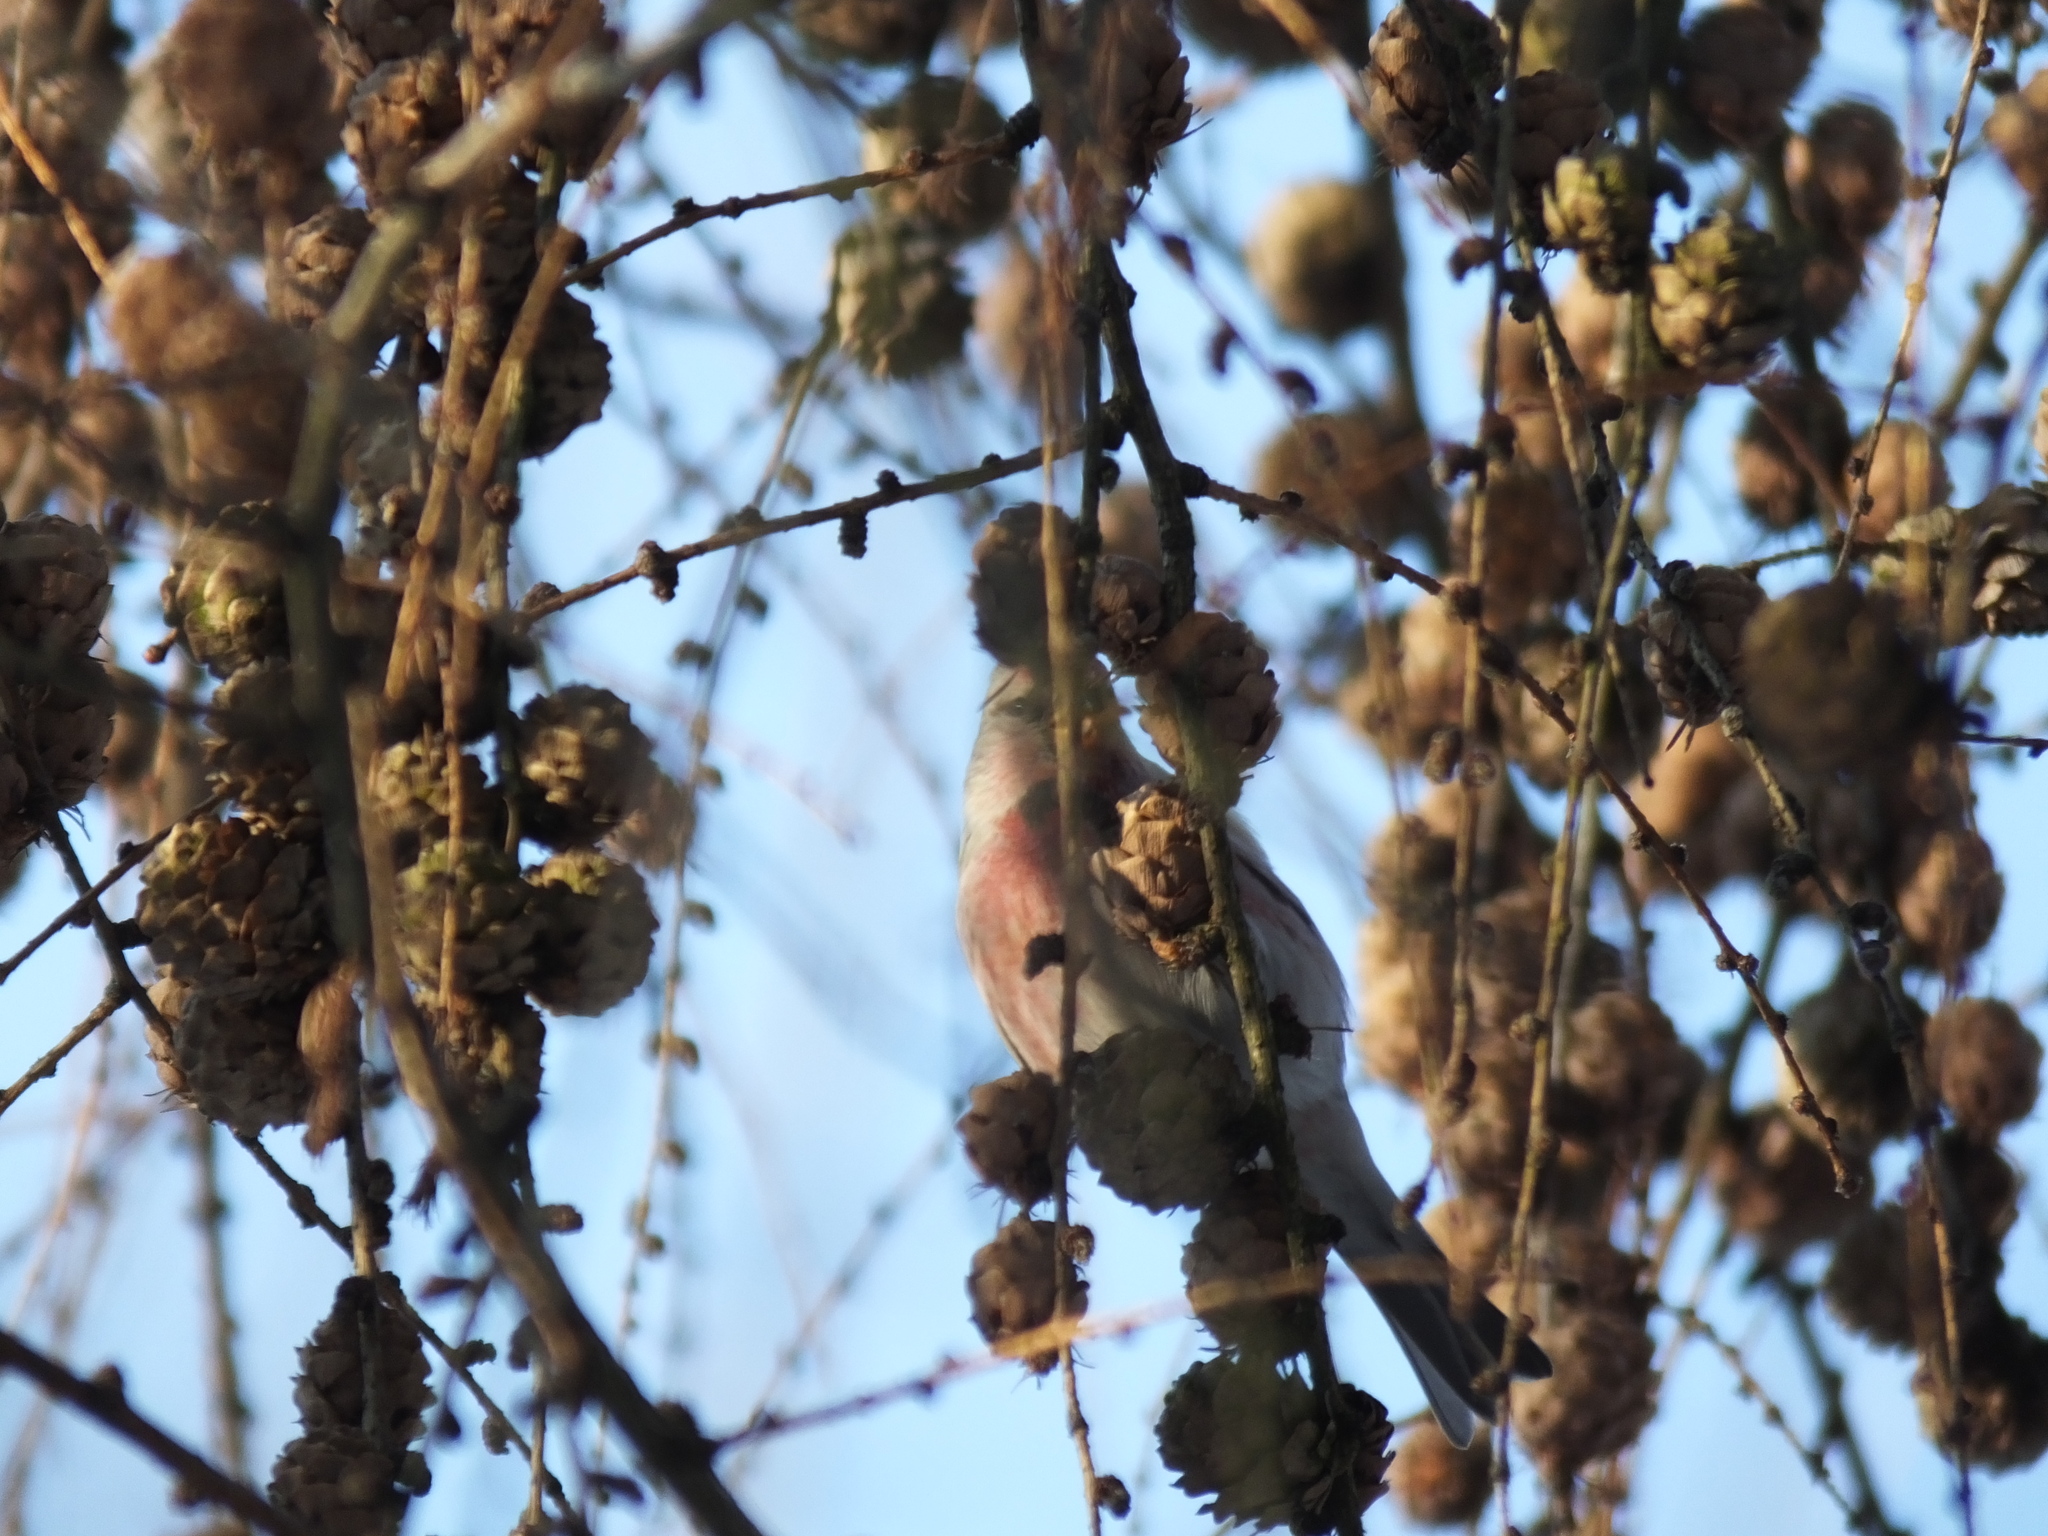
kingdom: Animalia
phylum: Chordata
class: Aves
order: Passeriformes
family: Fringillidae
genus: Acanthis
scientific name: Acanthis flammea
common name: Common redpoll
